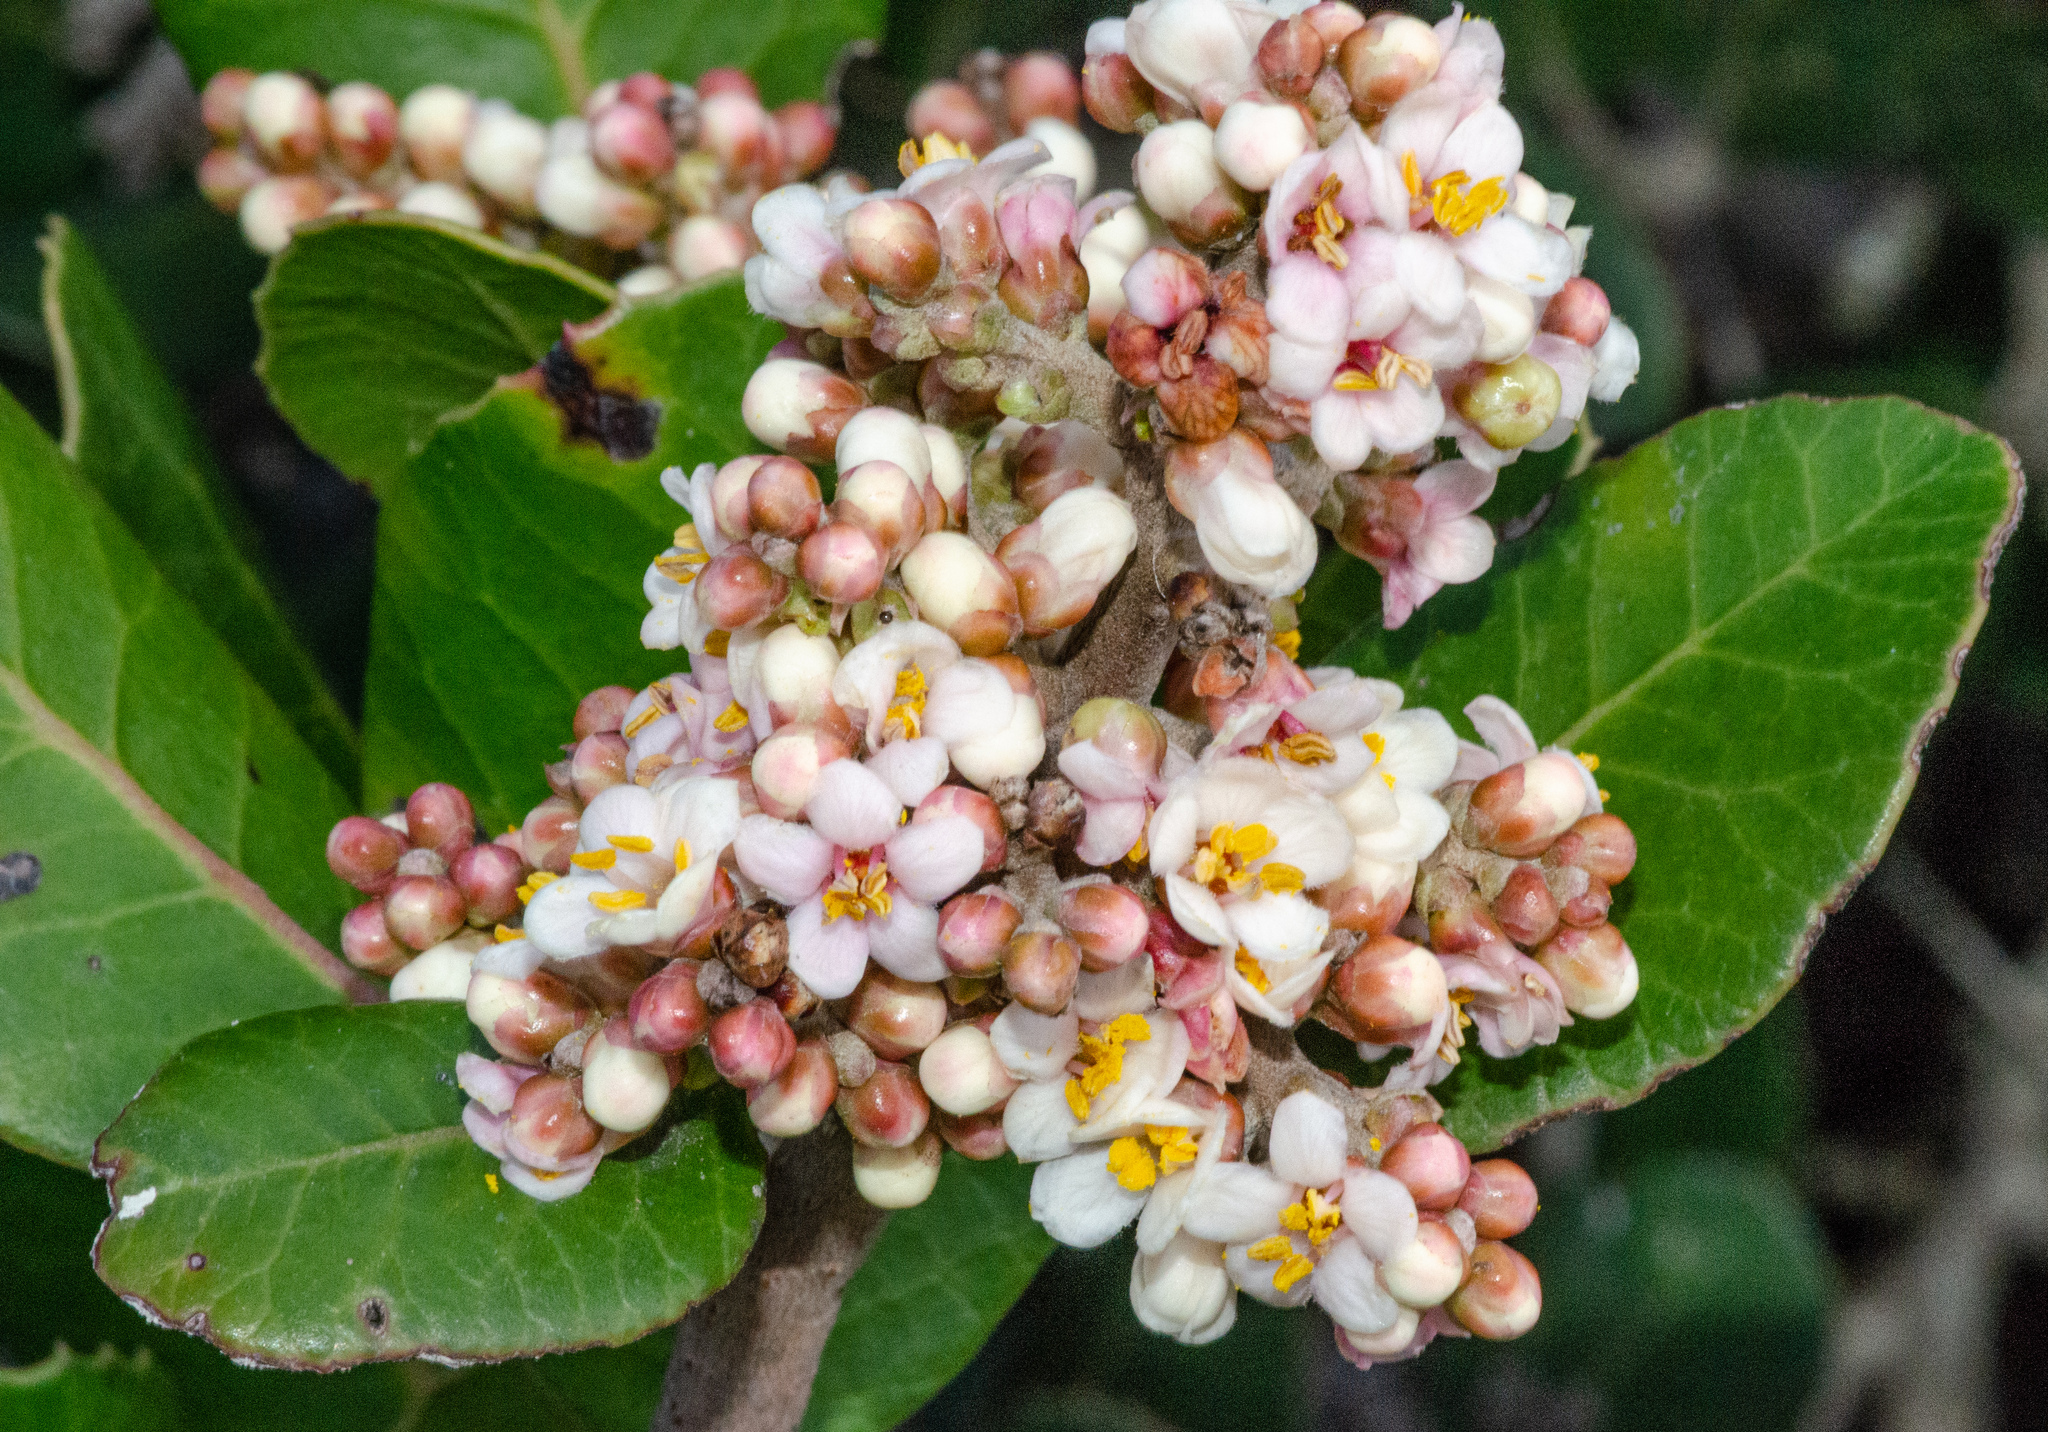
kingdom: Plantae
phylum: Tracheophyta
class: Magnoliopsida
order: Sapindales
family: Anacardiaceae
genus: Rhus
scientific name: Rhus integrifolia
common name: Lemonade sumac
